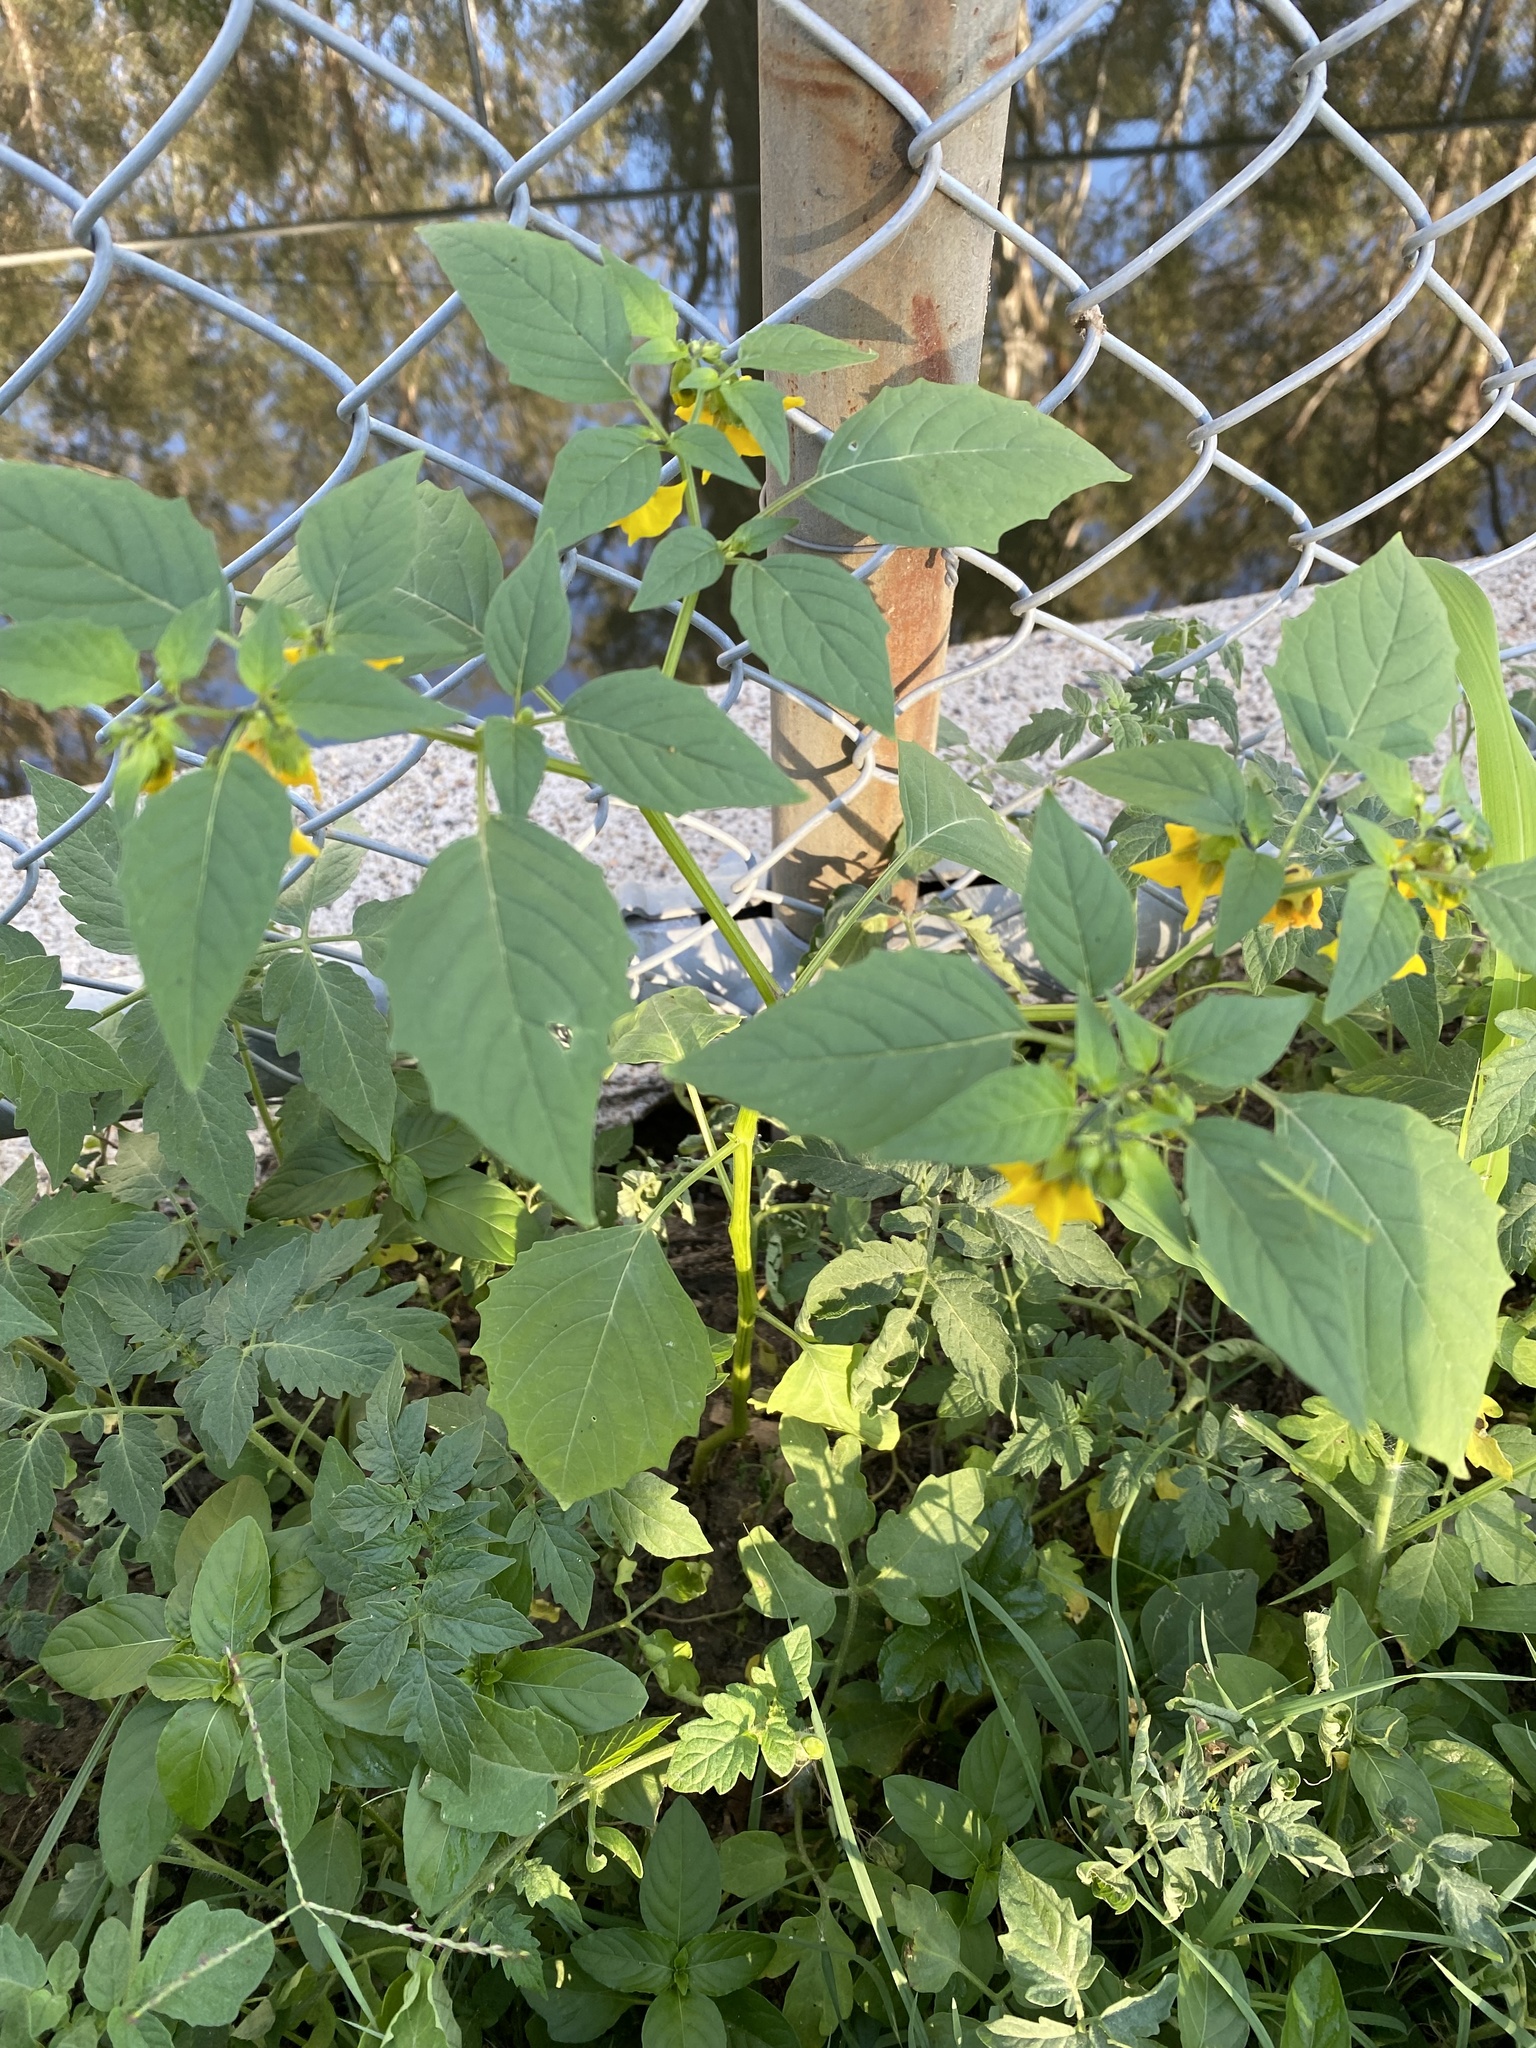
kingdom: Plantae
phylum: Tracheophyta
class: Magnoliopsida
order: Solanales
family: Solanaceae
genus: Physalis
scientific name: Physalis philadelphica
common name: Husk-tomato
